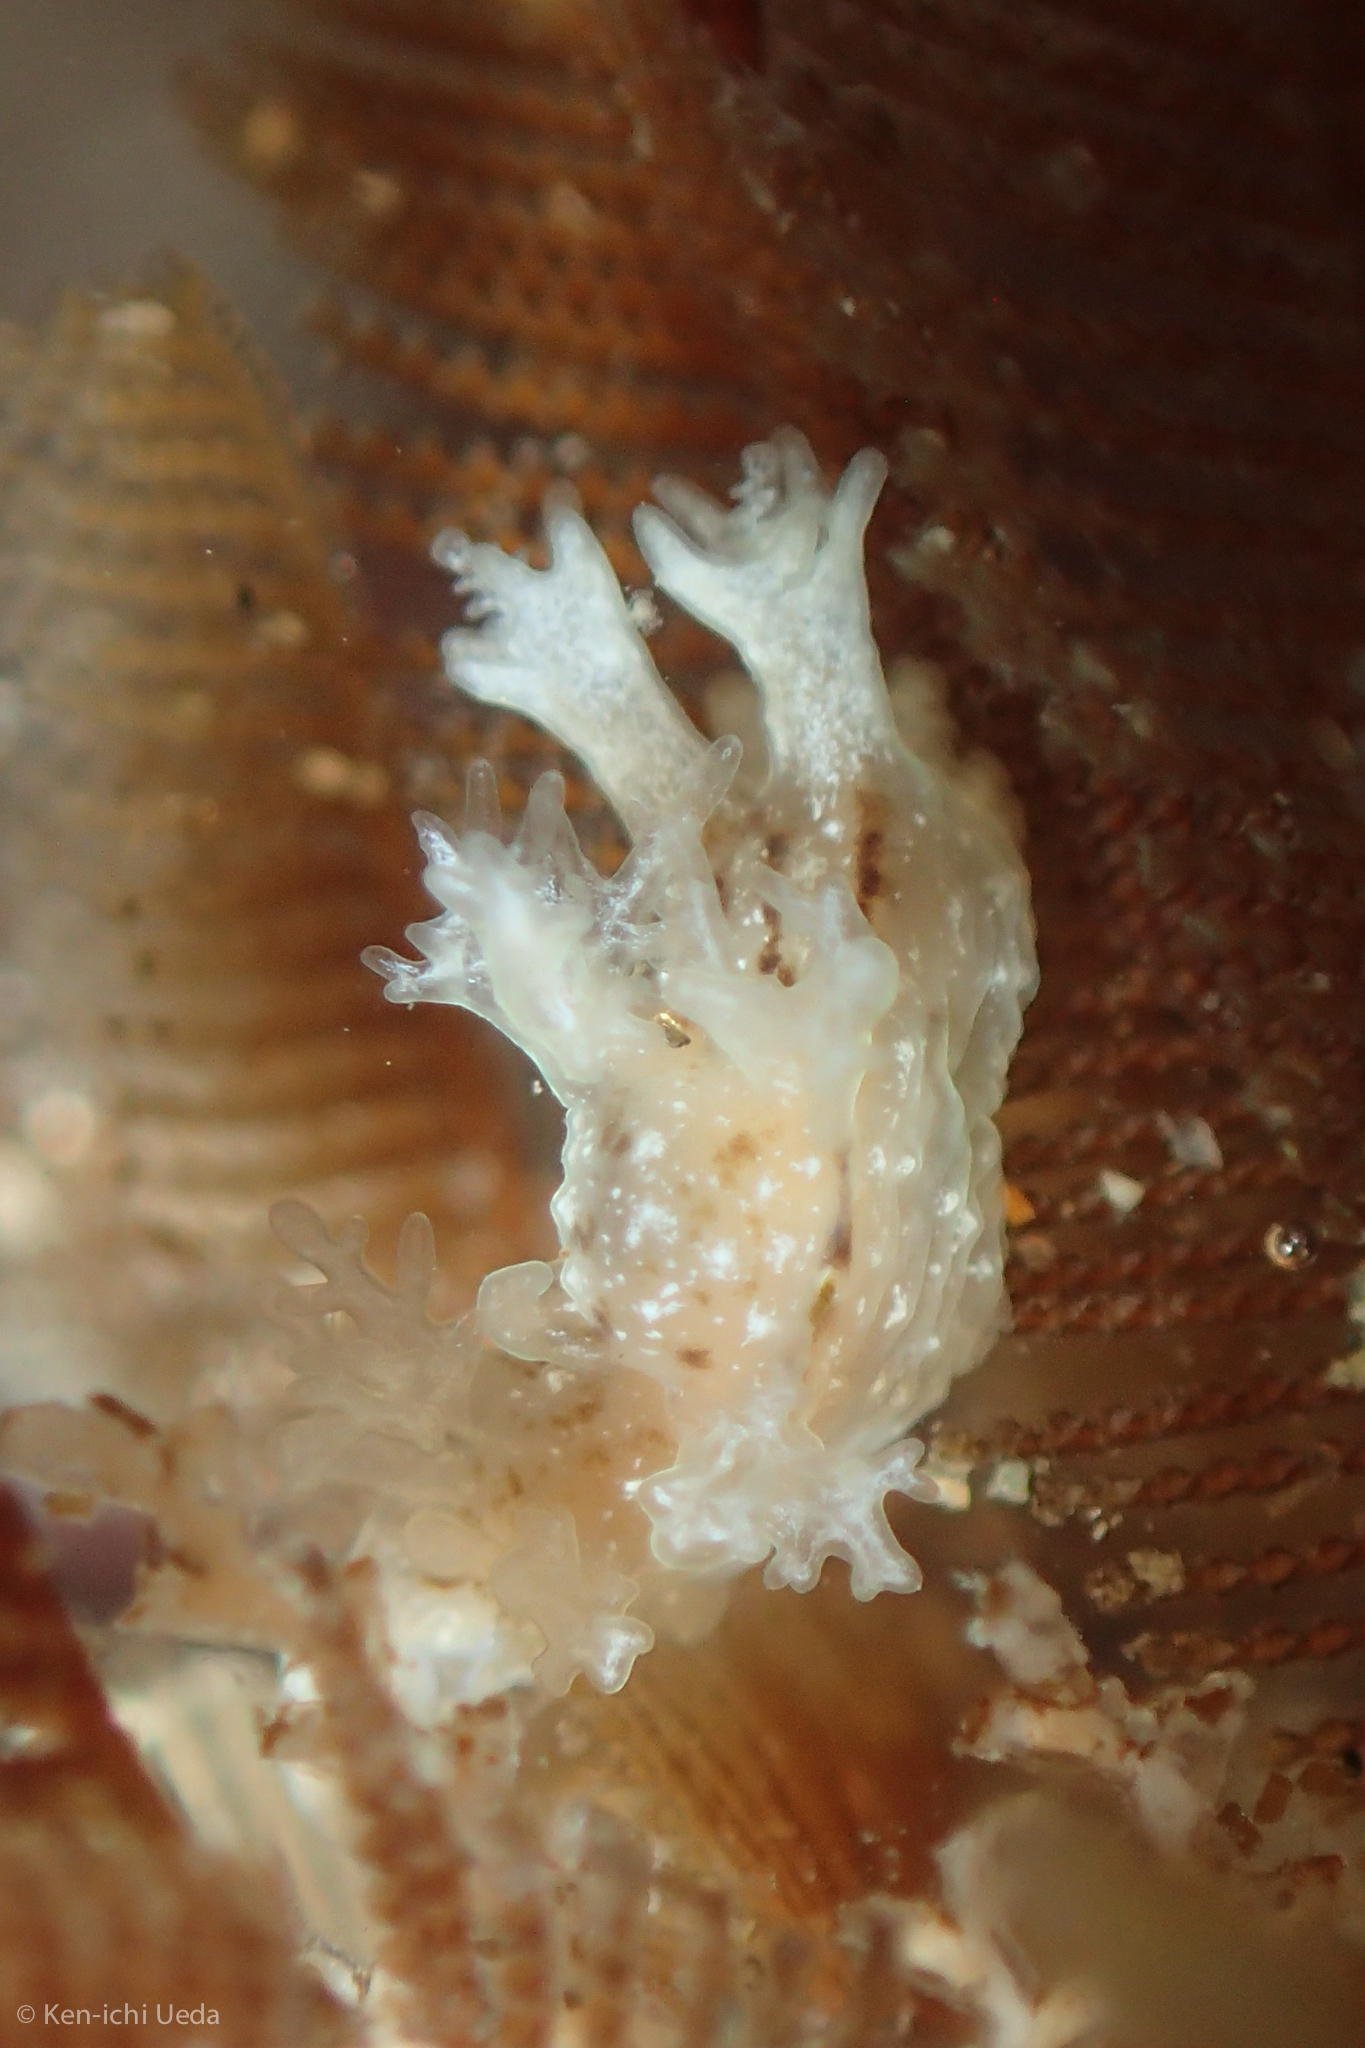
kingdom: Animalia
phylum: Mollusca
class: Gastropoda
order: Nudibranchia
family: Dendronotidae
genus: Dendronotus
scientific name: Dendronotus subramosus
